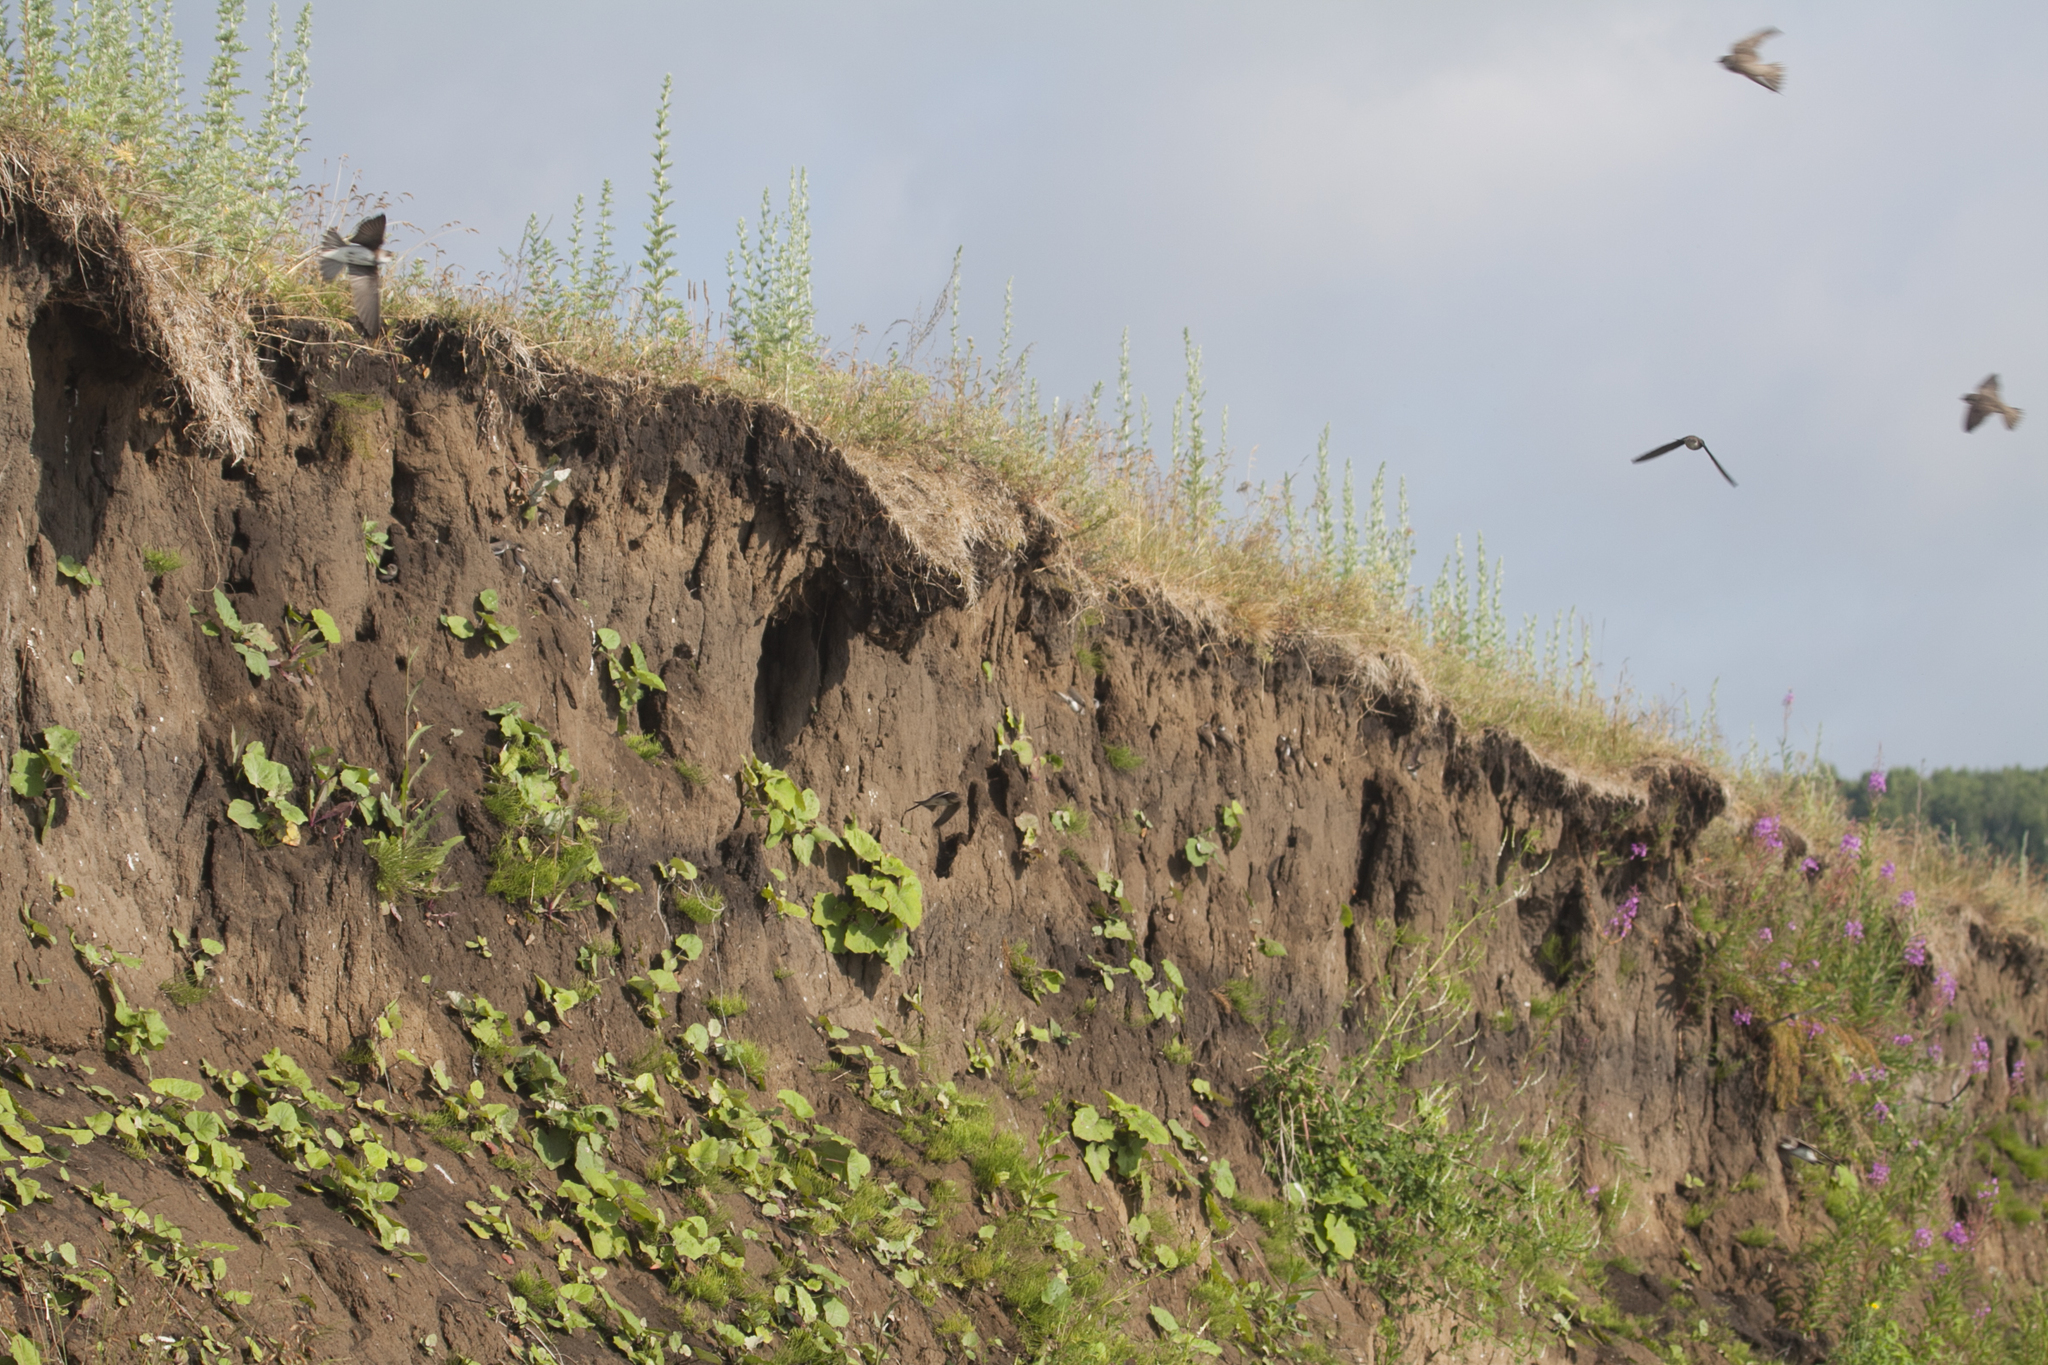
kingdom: Animalia
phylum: Chordata
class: Aves
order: Passeriformes
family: Hirundinidae
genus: Riparia
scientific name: Riparia riparia
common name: Sand martin
